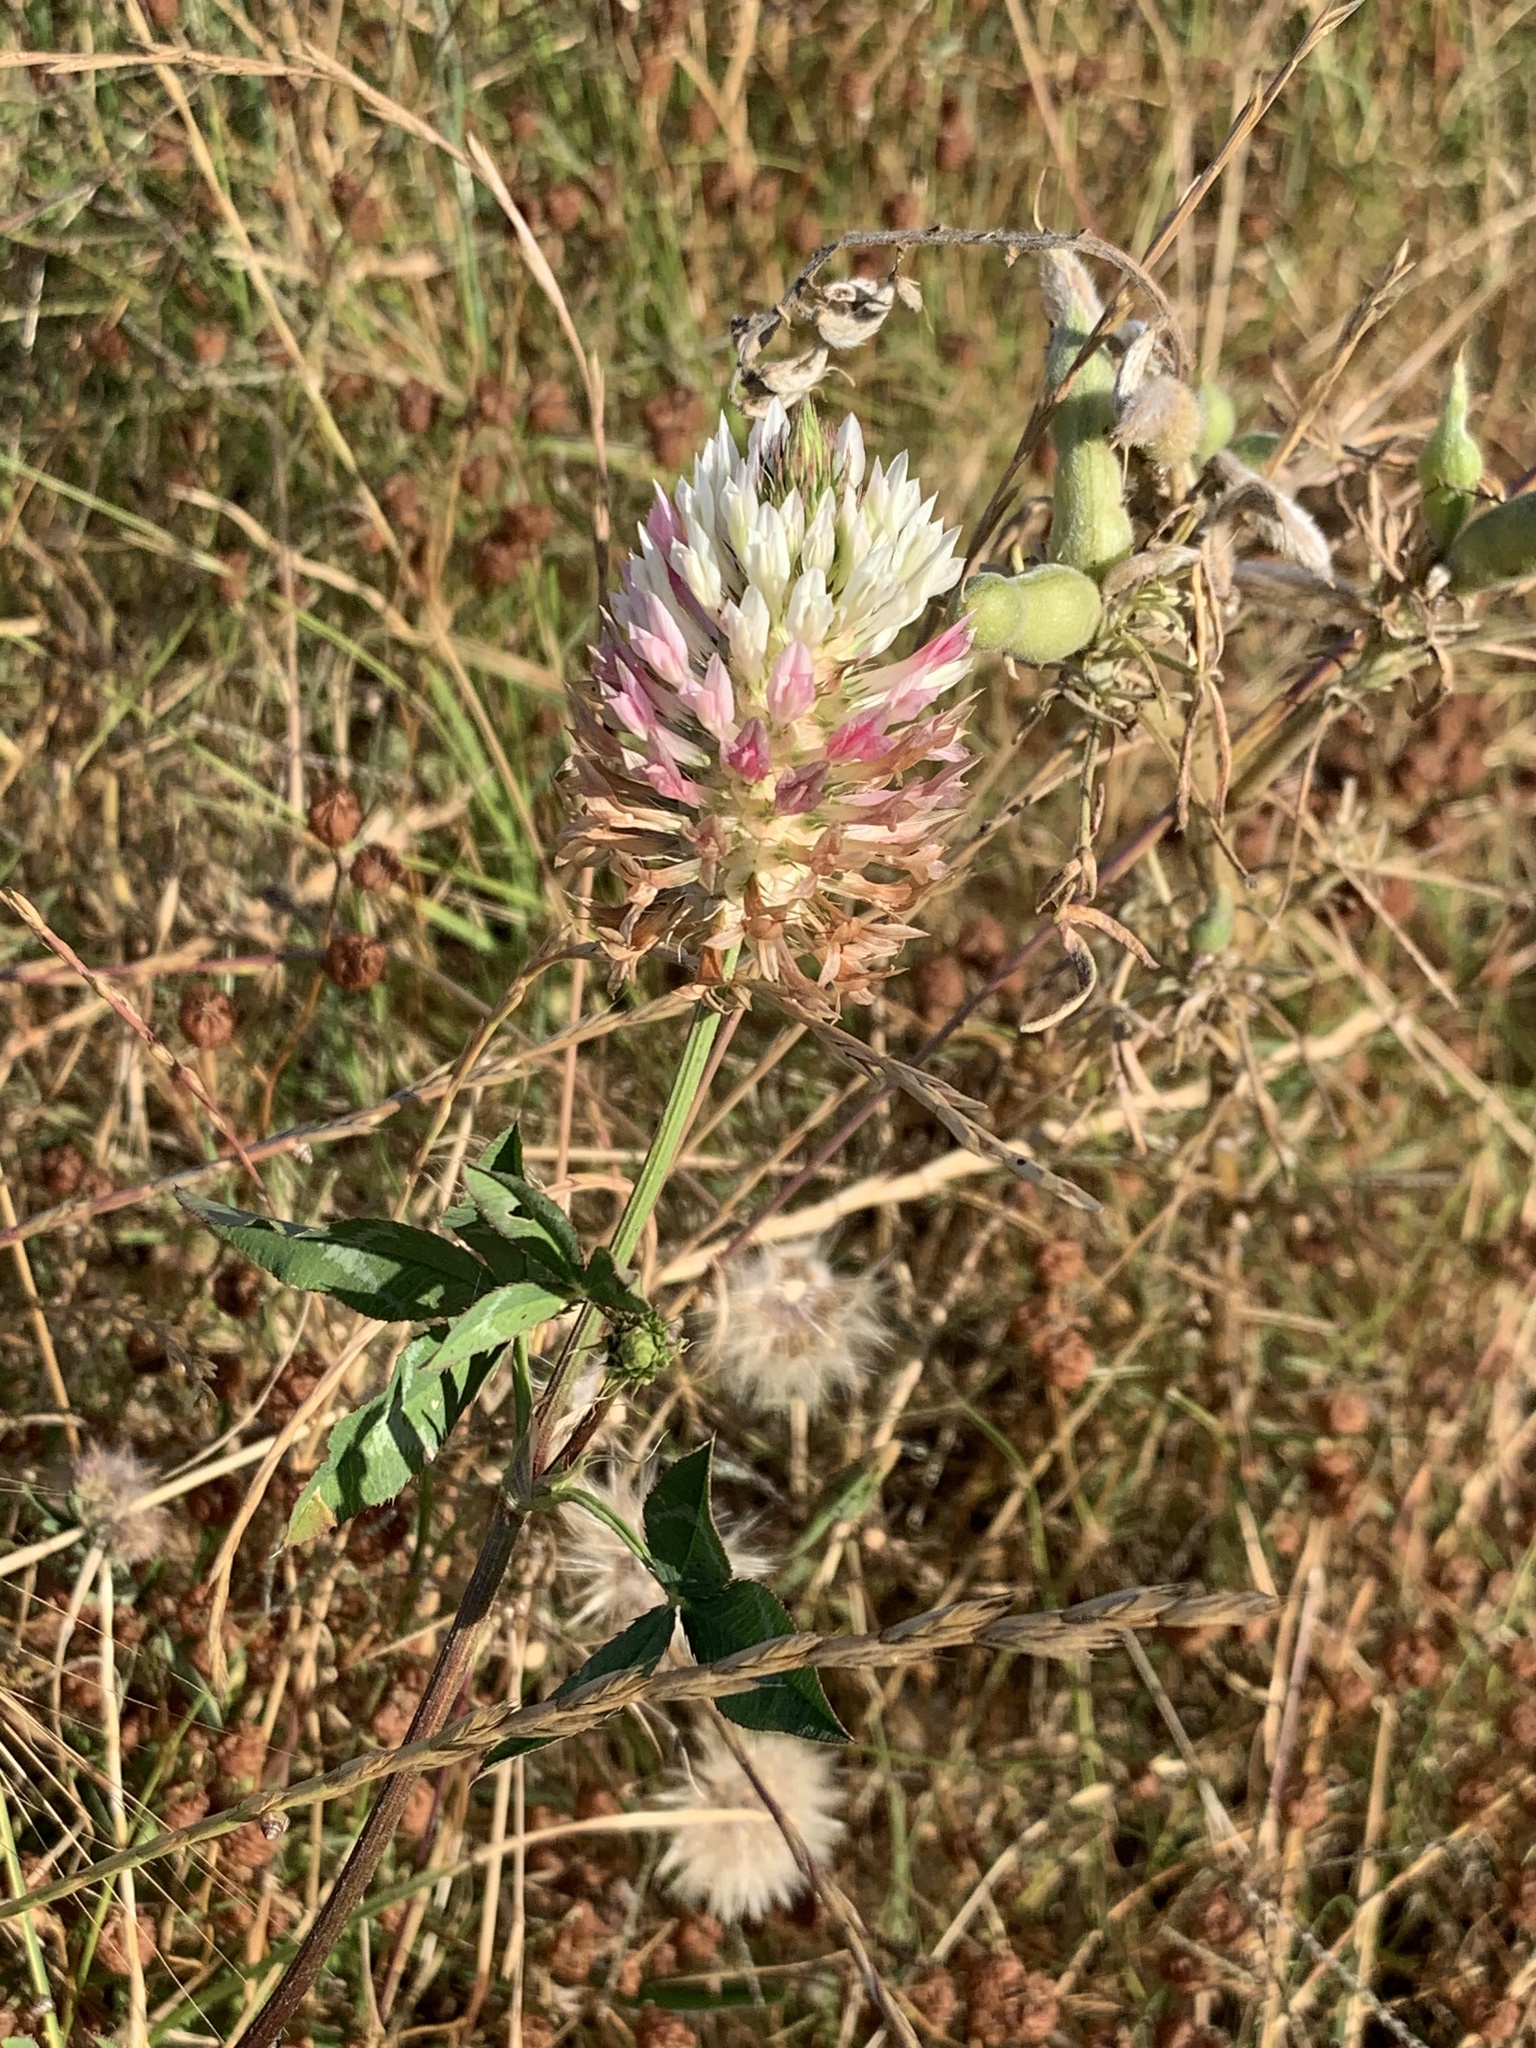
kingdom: Plantae
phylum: Tracheophyta
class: Magnoliopsida
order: Fabales
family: Fabaceae
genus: Trifolium
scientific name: Trifolium vesiculosum
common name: Arrowleaf clover
